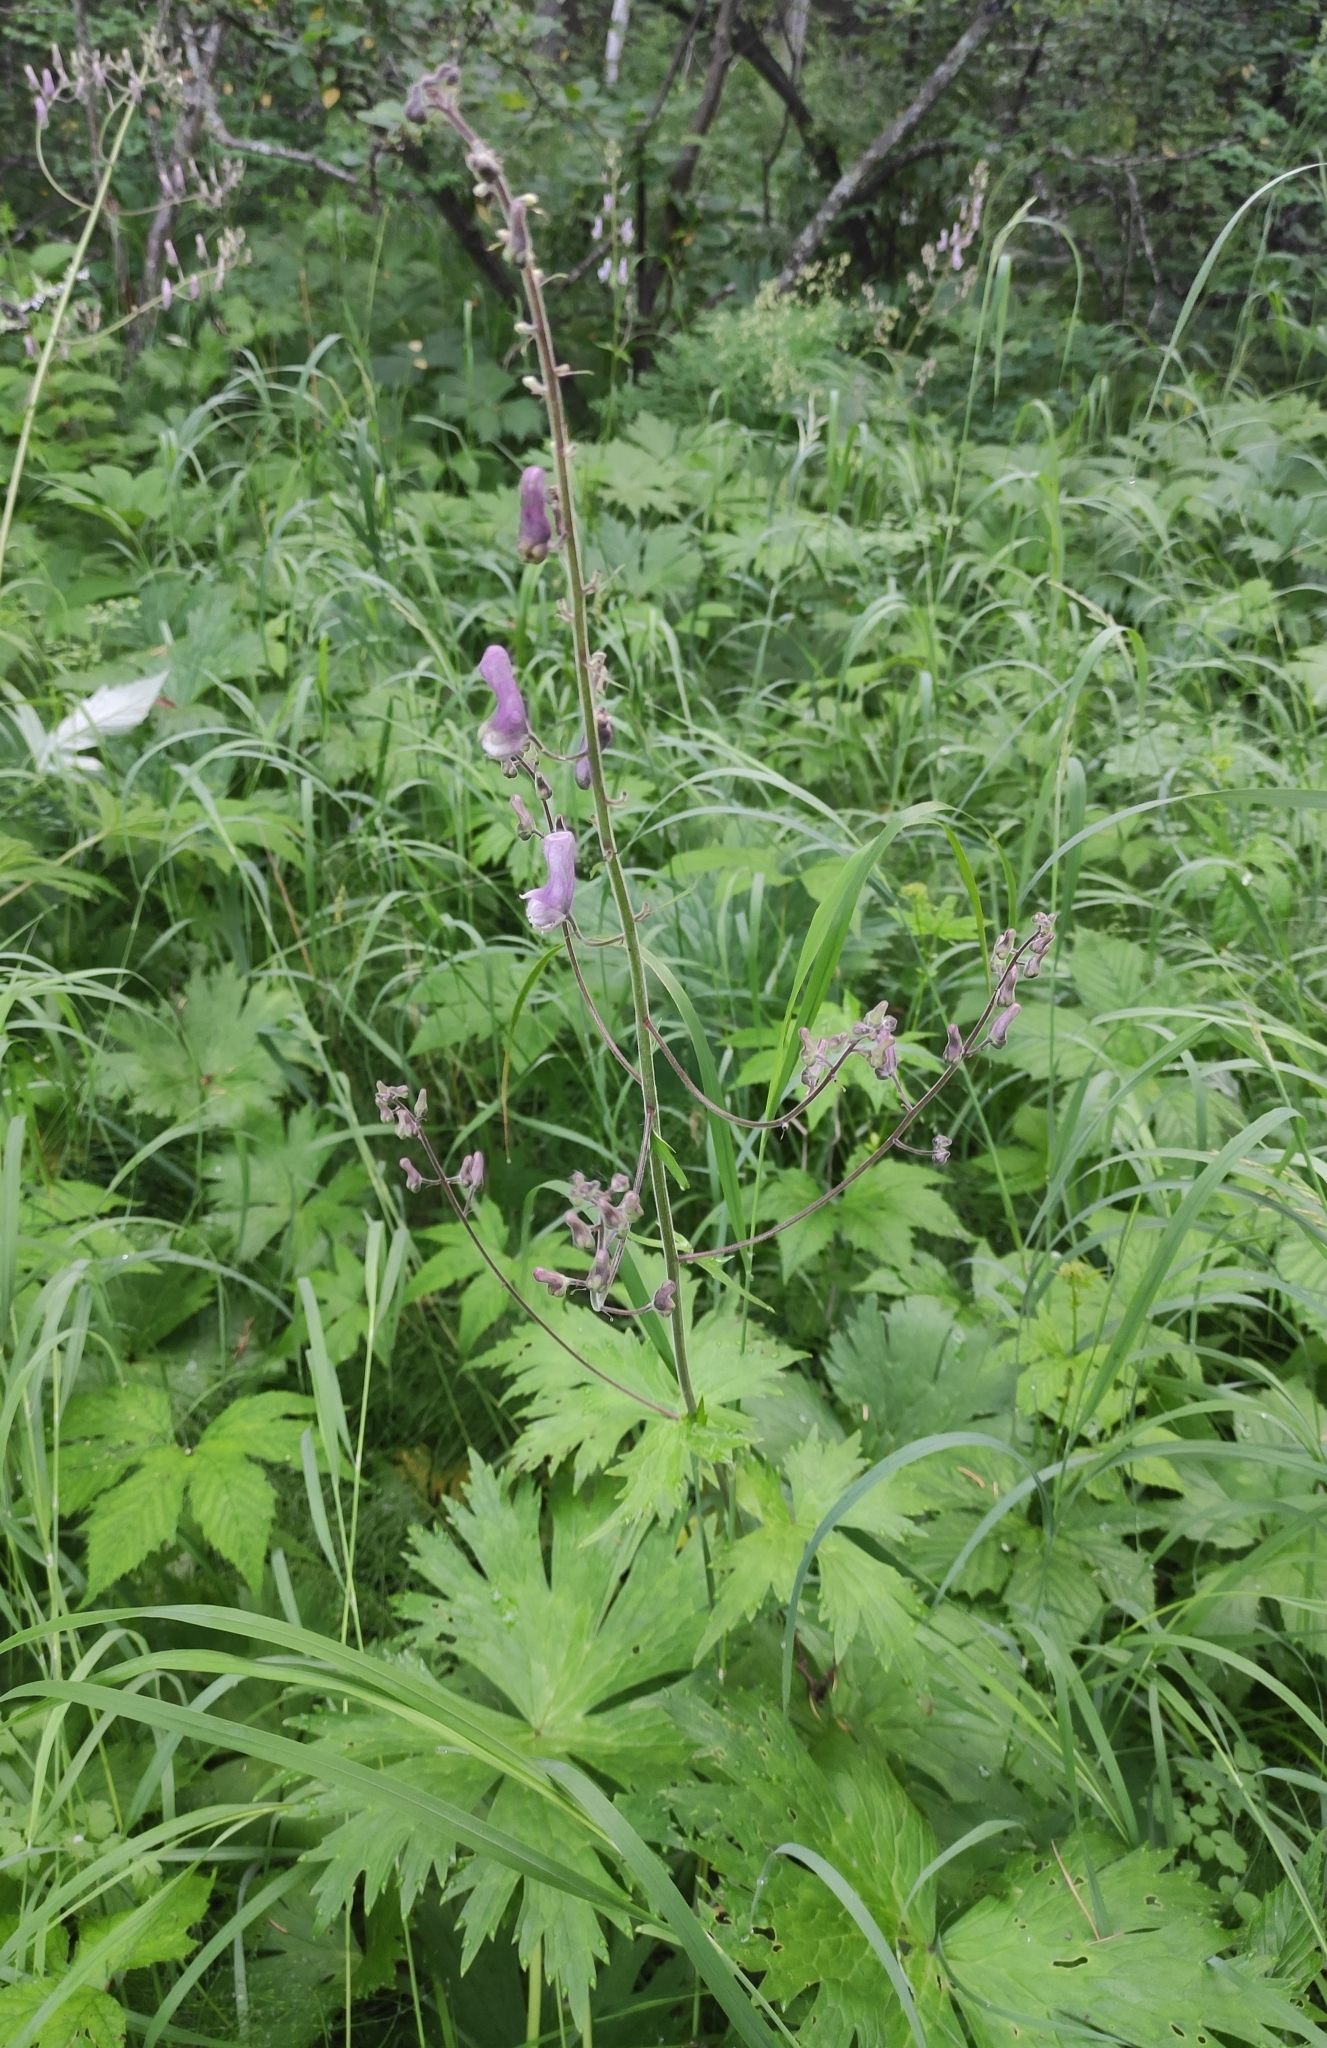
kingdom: Plantae
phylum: Tracheophyta
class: Magnoliopsida
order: Ranunculales
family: Ranunculaceae
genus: Aconitum
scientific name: Aconitum septentrionale
